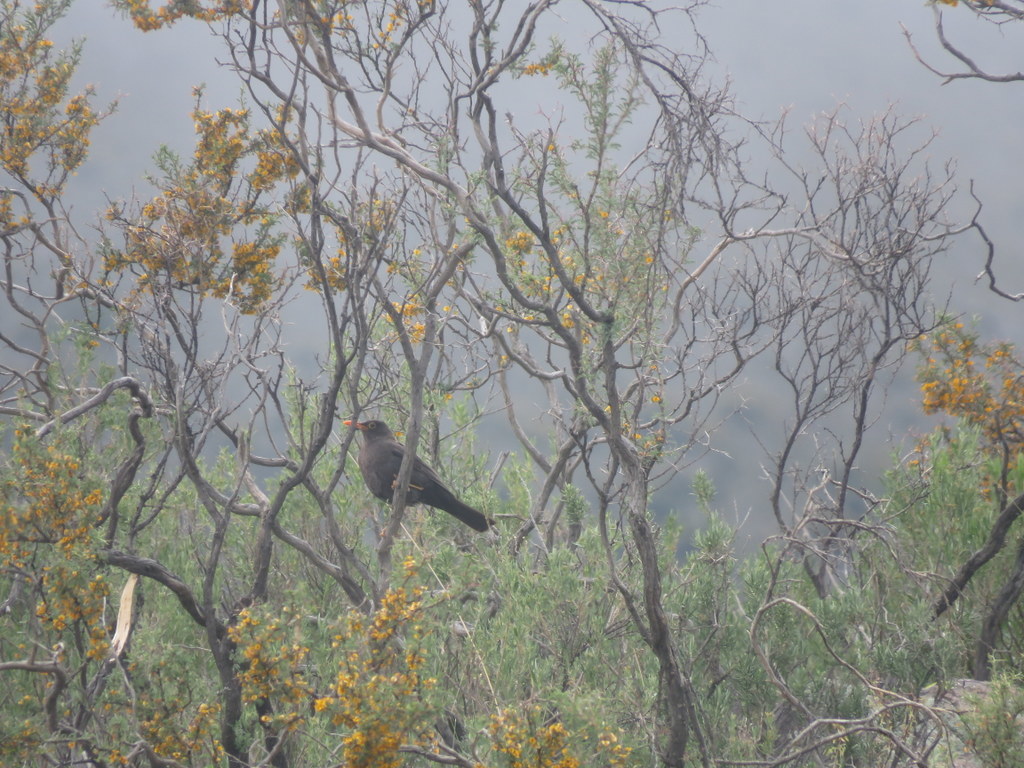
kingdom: Animalia
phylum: Chordata
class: Aves
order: Passeriformes
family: Turdidae
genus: Turdus
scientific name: Turdus chiguanco
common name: Chiguanco thrush
